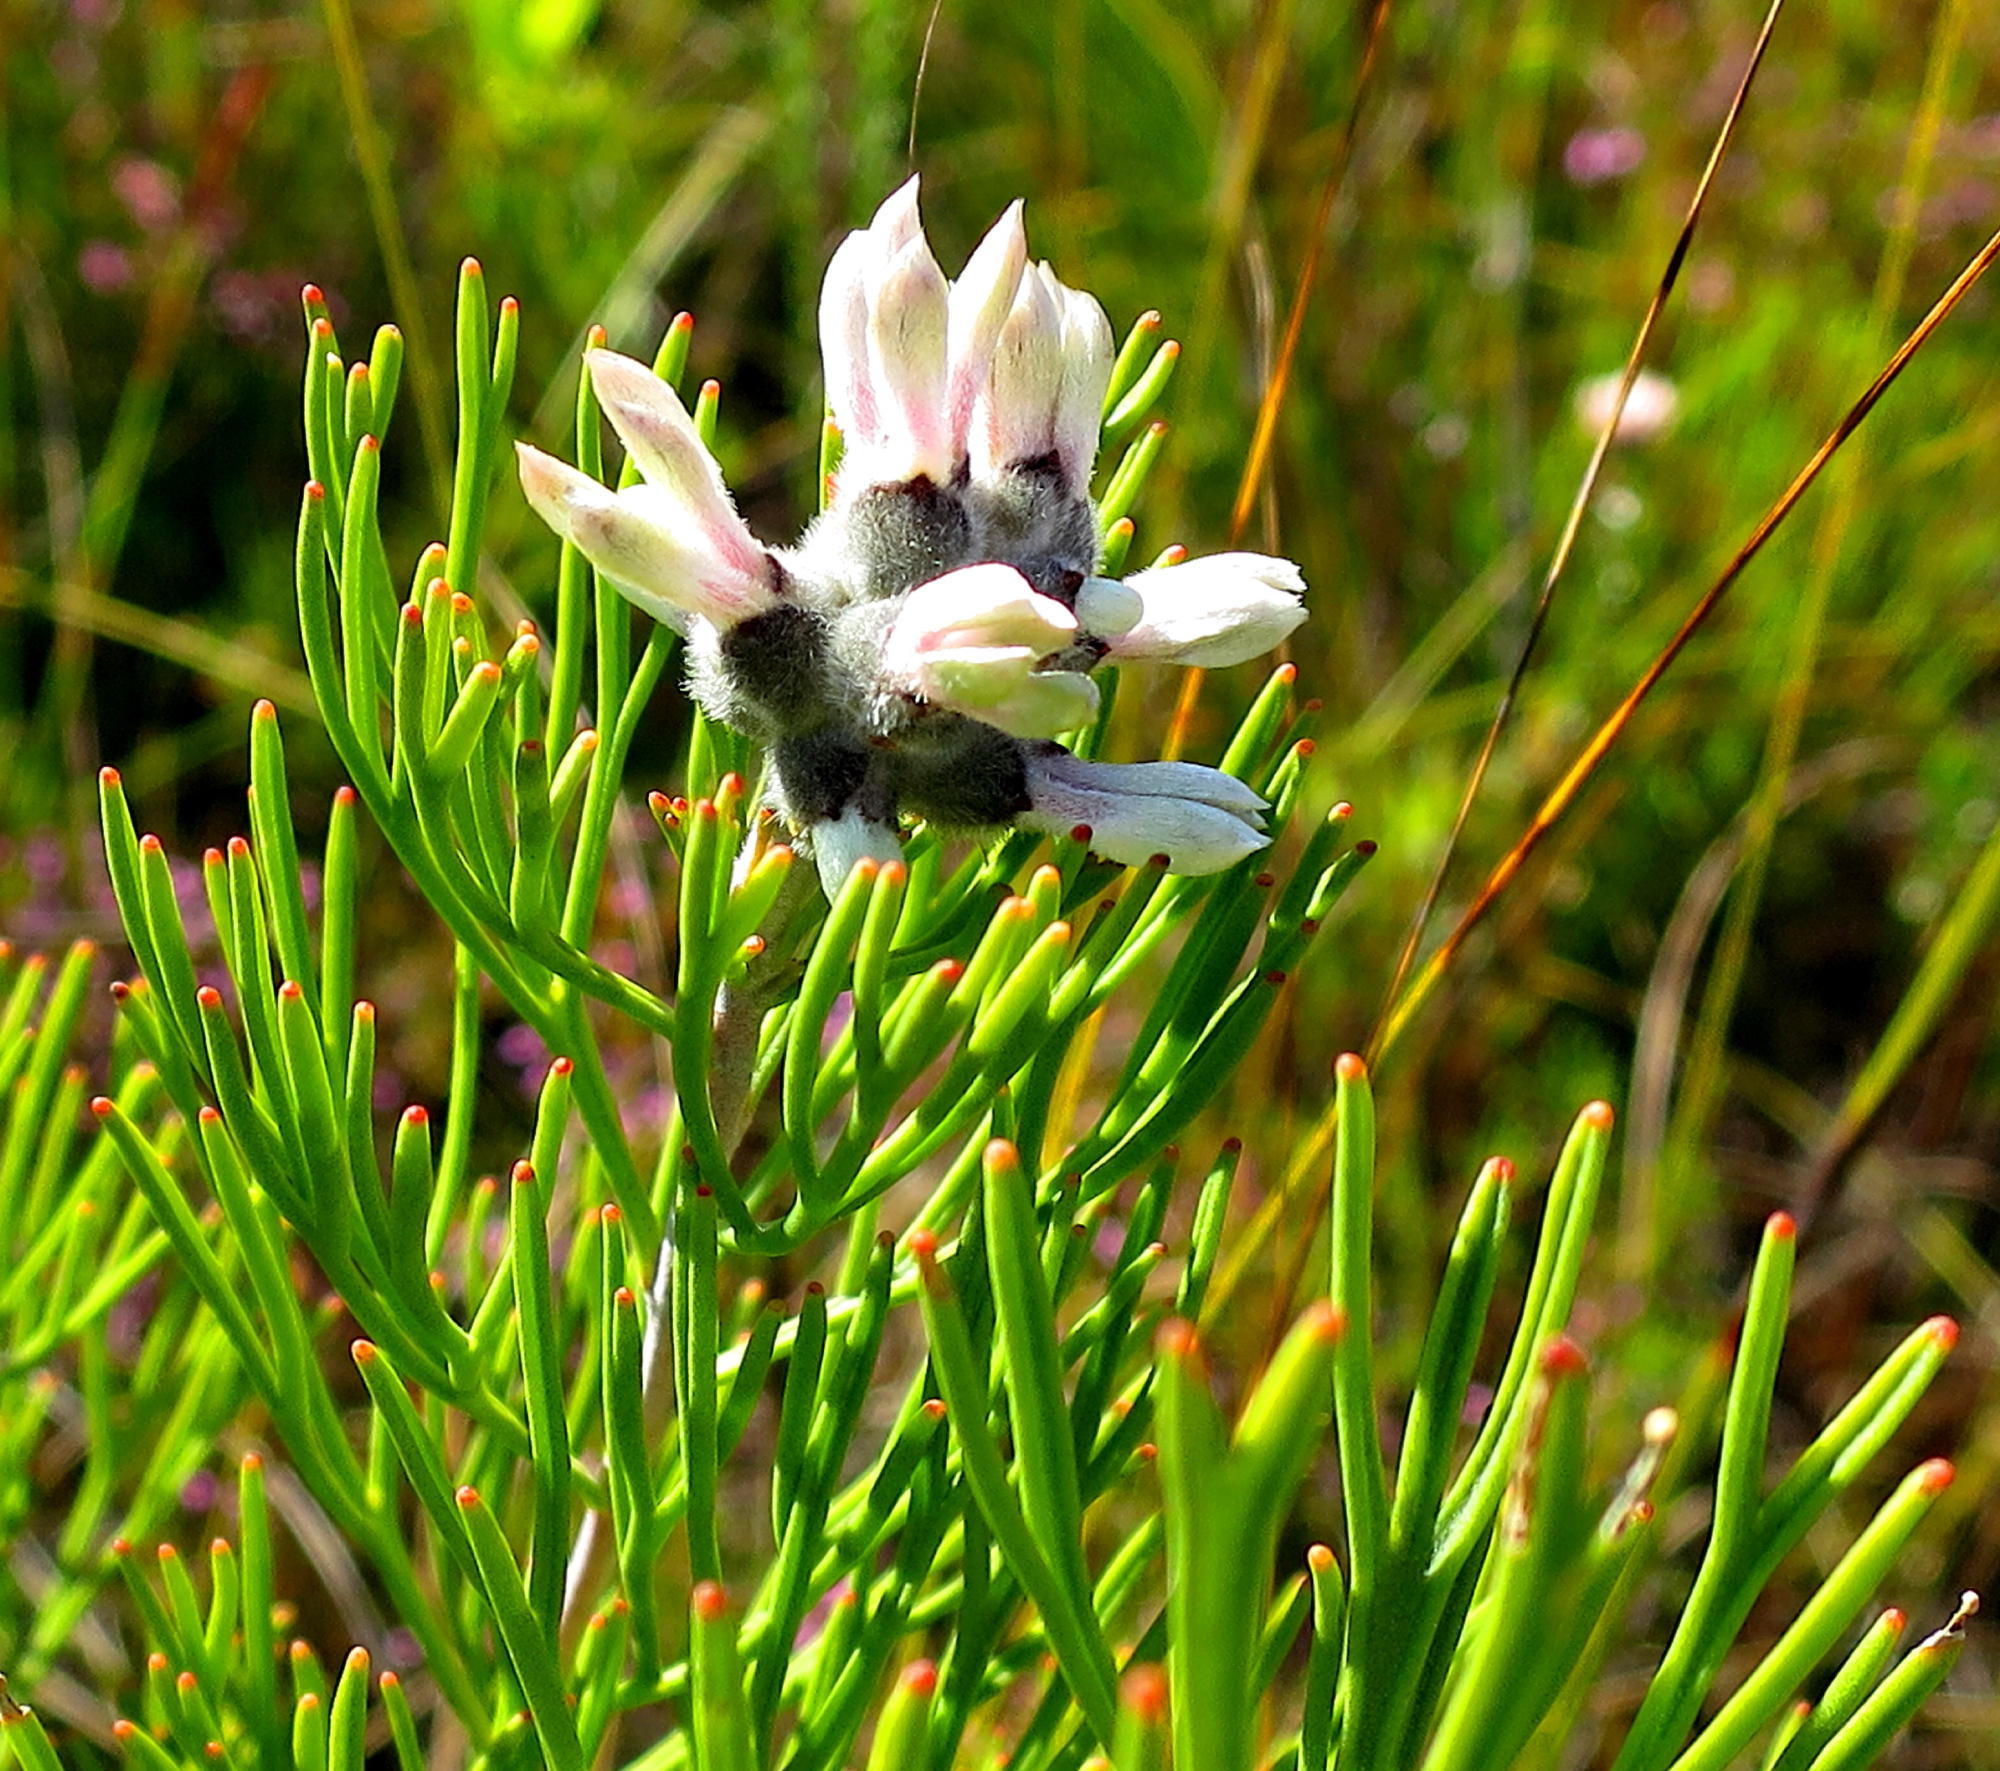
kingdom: Plantae
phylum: Tracheophyta
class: Magnoliopsida
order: Proteales
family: Proteaceae
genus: Paranomus
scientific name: Paranomus dregei
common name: Scented sceptre
